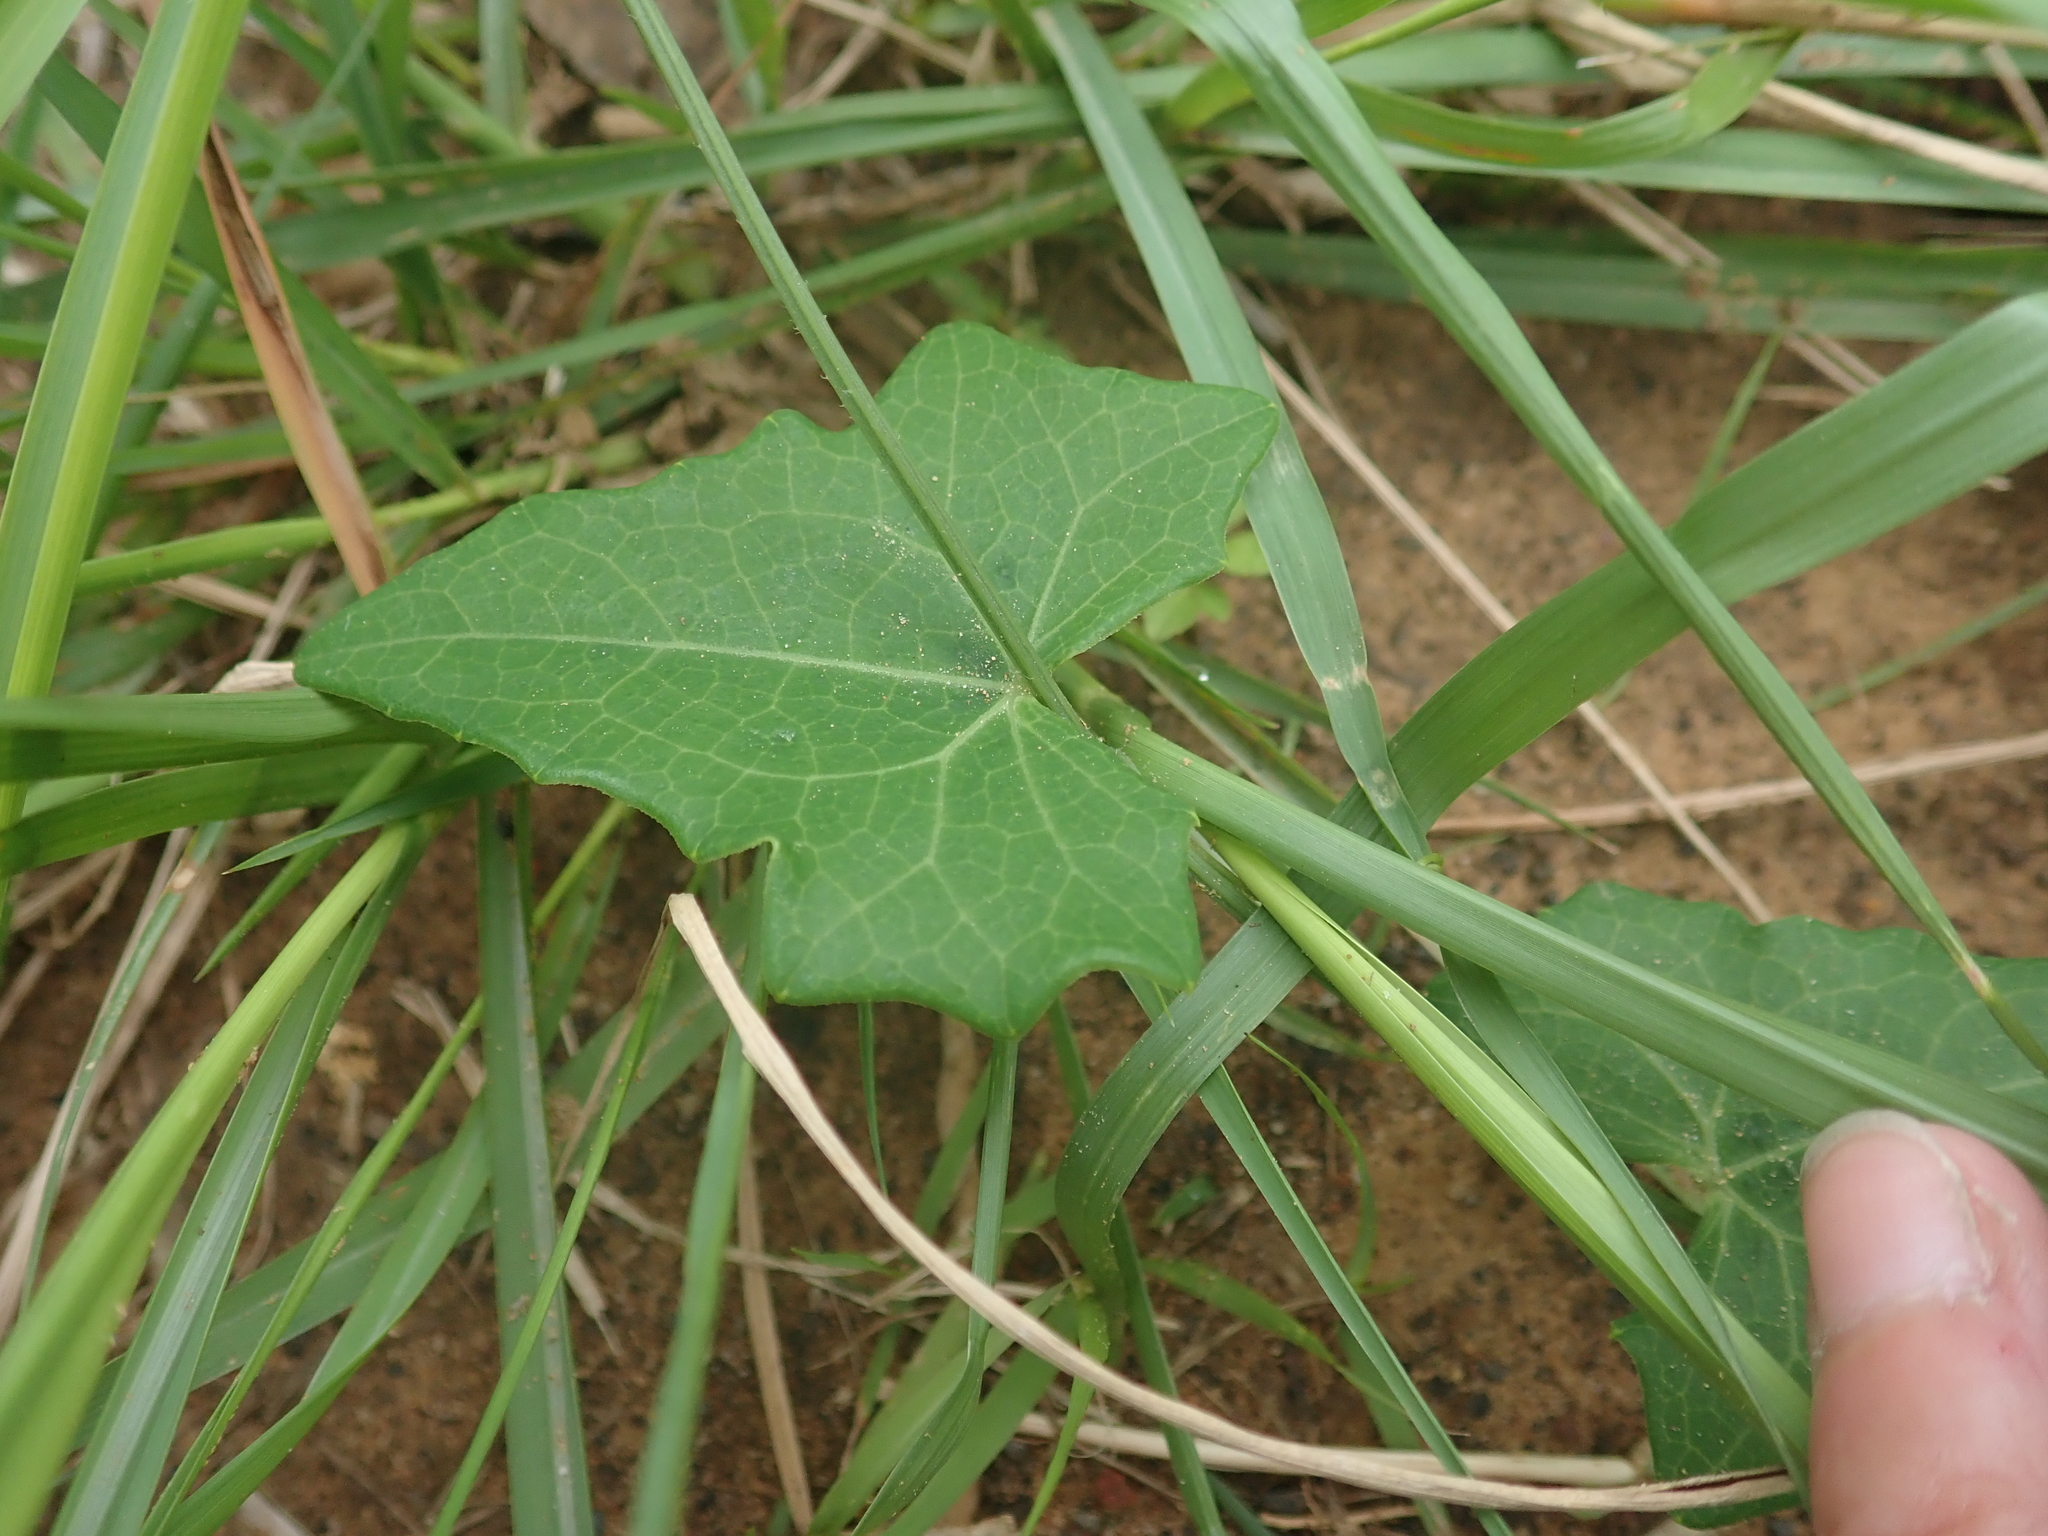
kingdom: Plantae
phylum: Tracheophyta
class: Magnoliopsida
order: Cucurbitales
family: Cucurbitaceae
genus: Solena
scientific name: Solena amplexicaulis
